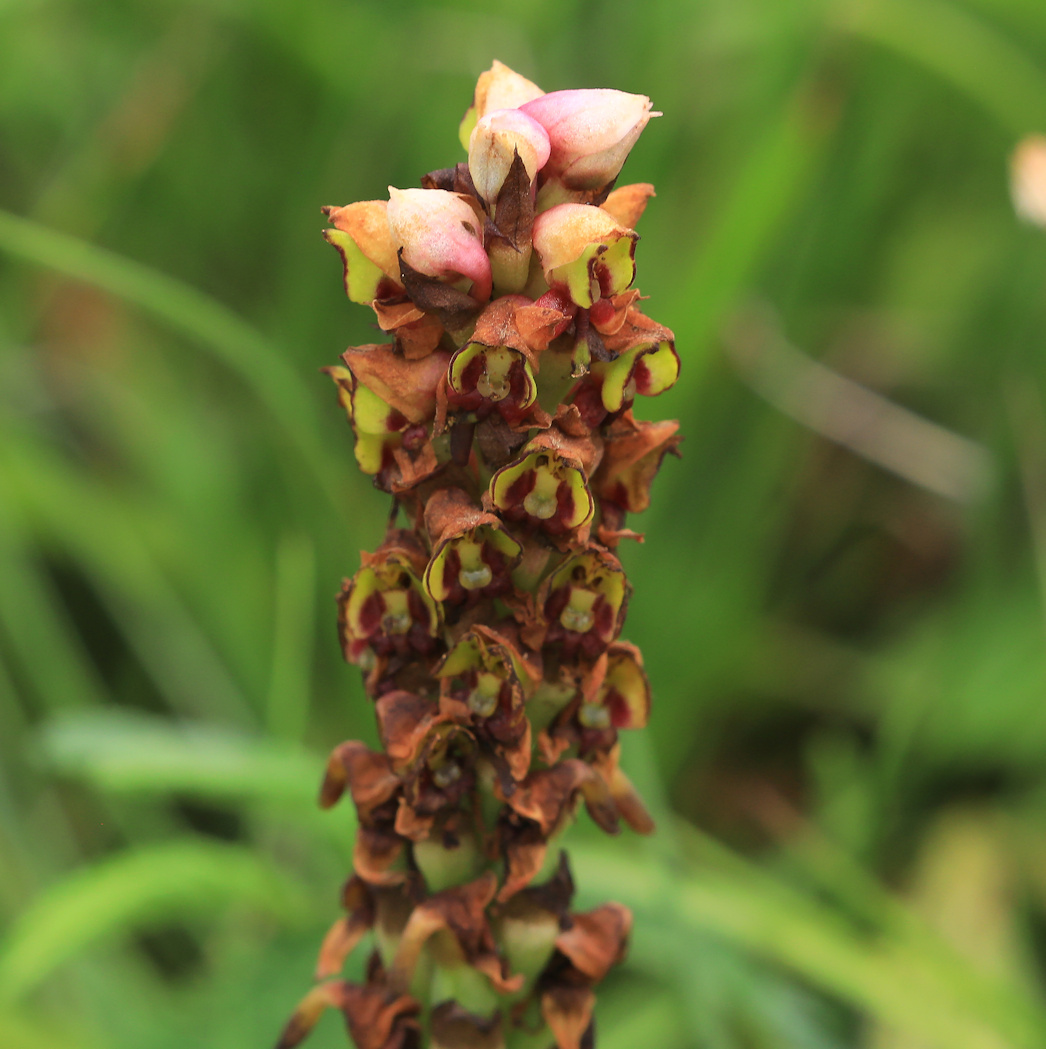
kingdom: Plantae
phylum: Tracheophyta
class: Liliopsida
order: Asparagales
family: Orchidaceae
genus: Disa
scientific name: Disa versicolor
